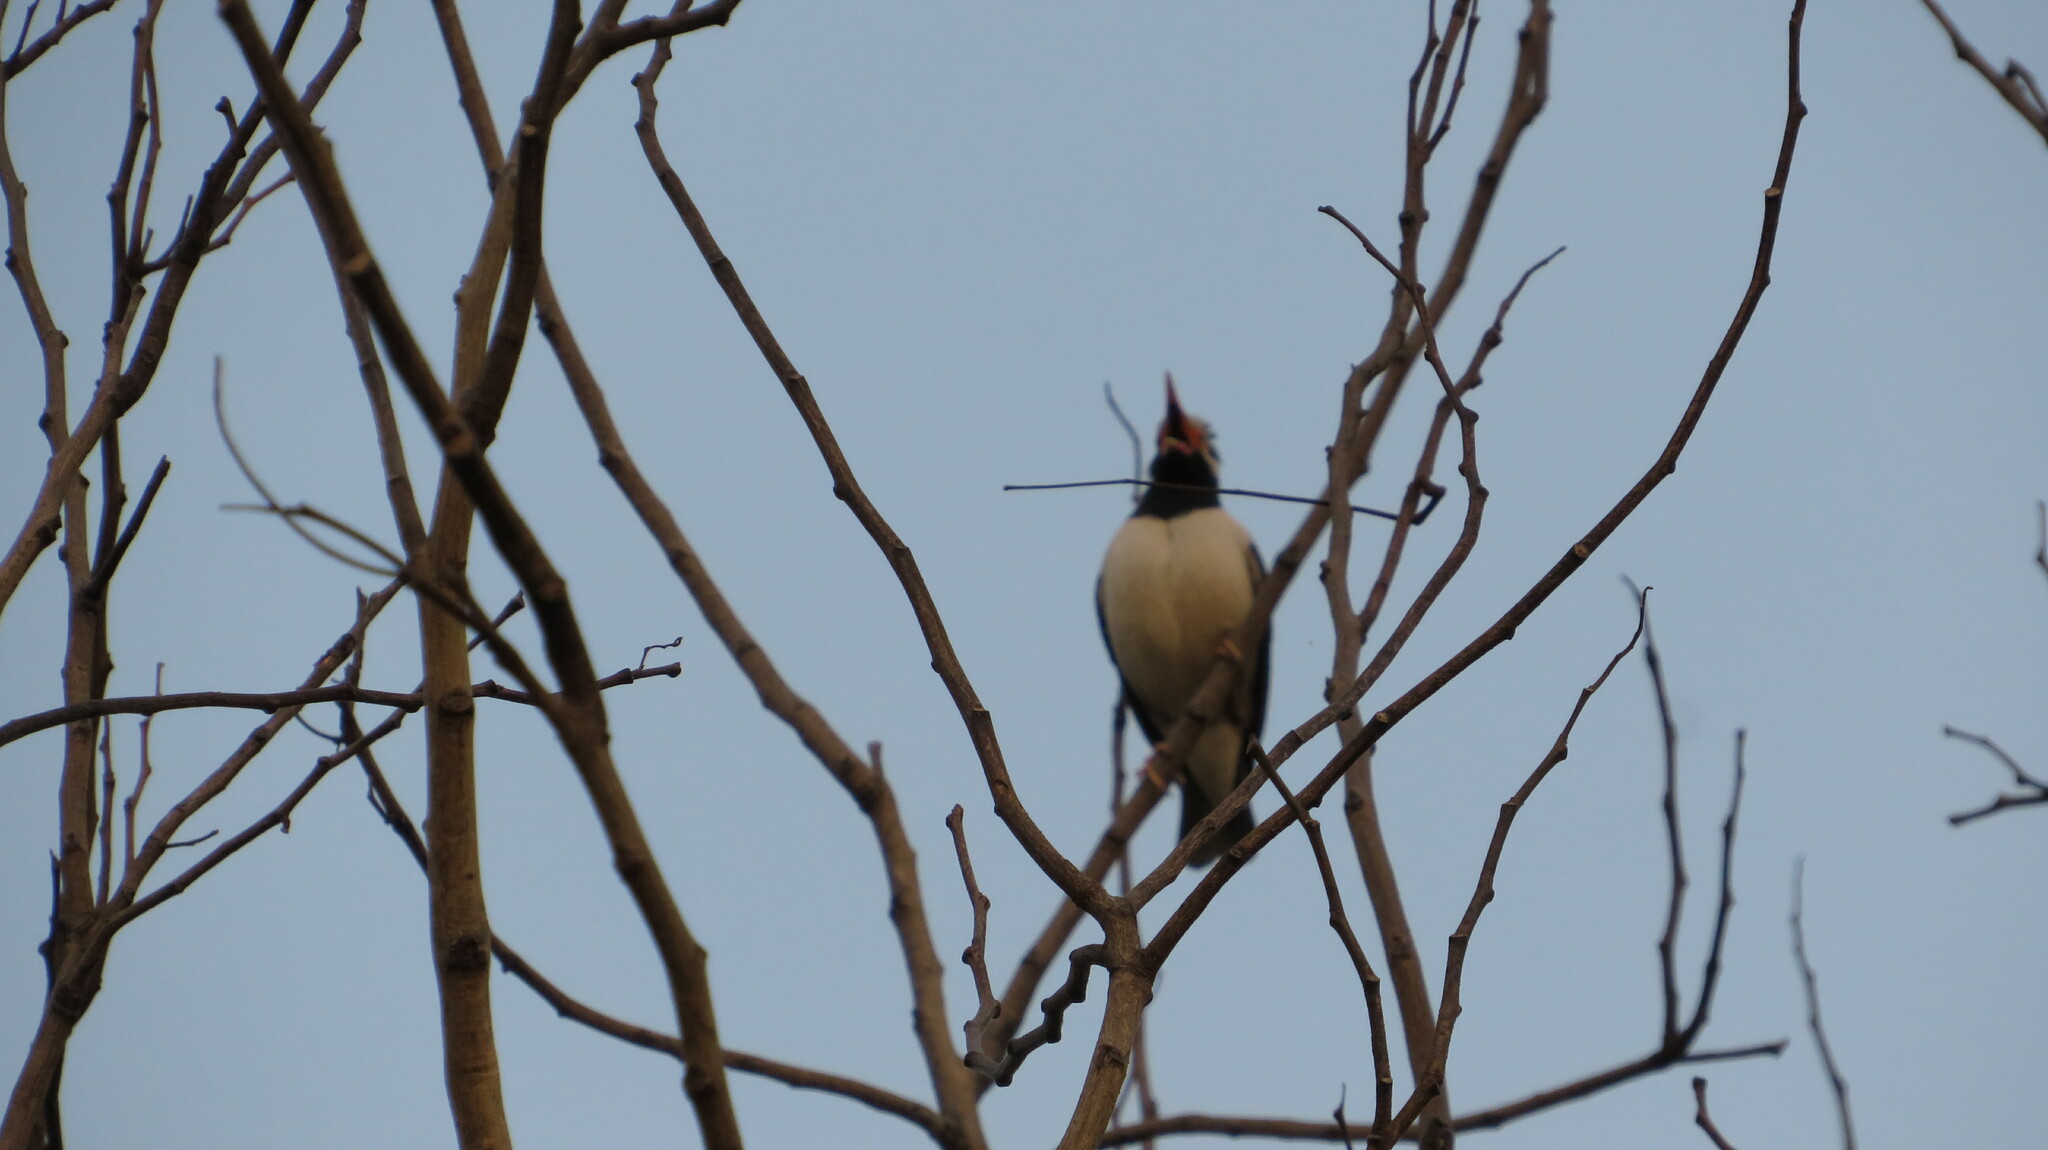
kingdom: Animalia
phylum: Chordata
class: Aves
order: Passeriformes
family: Sturnidae
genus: Gracupica
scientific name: Gracupica contra
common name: Pied myna
